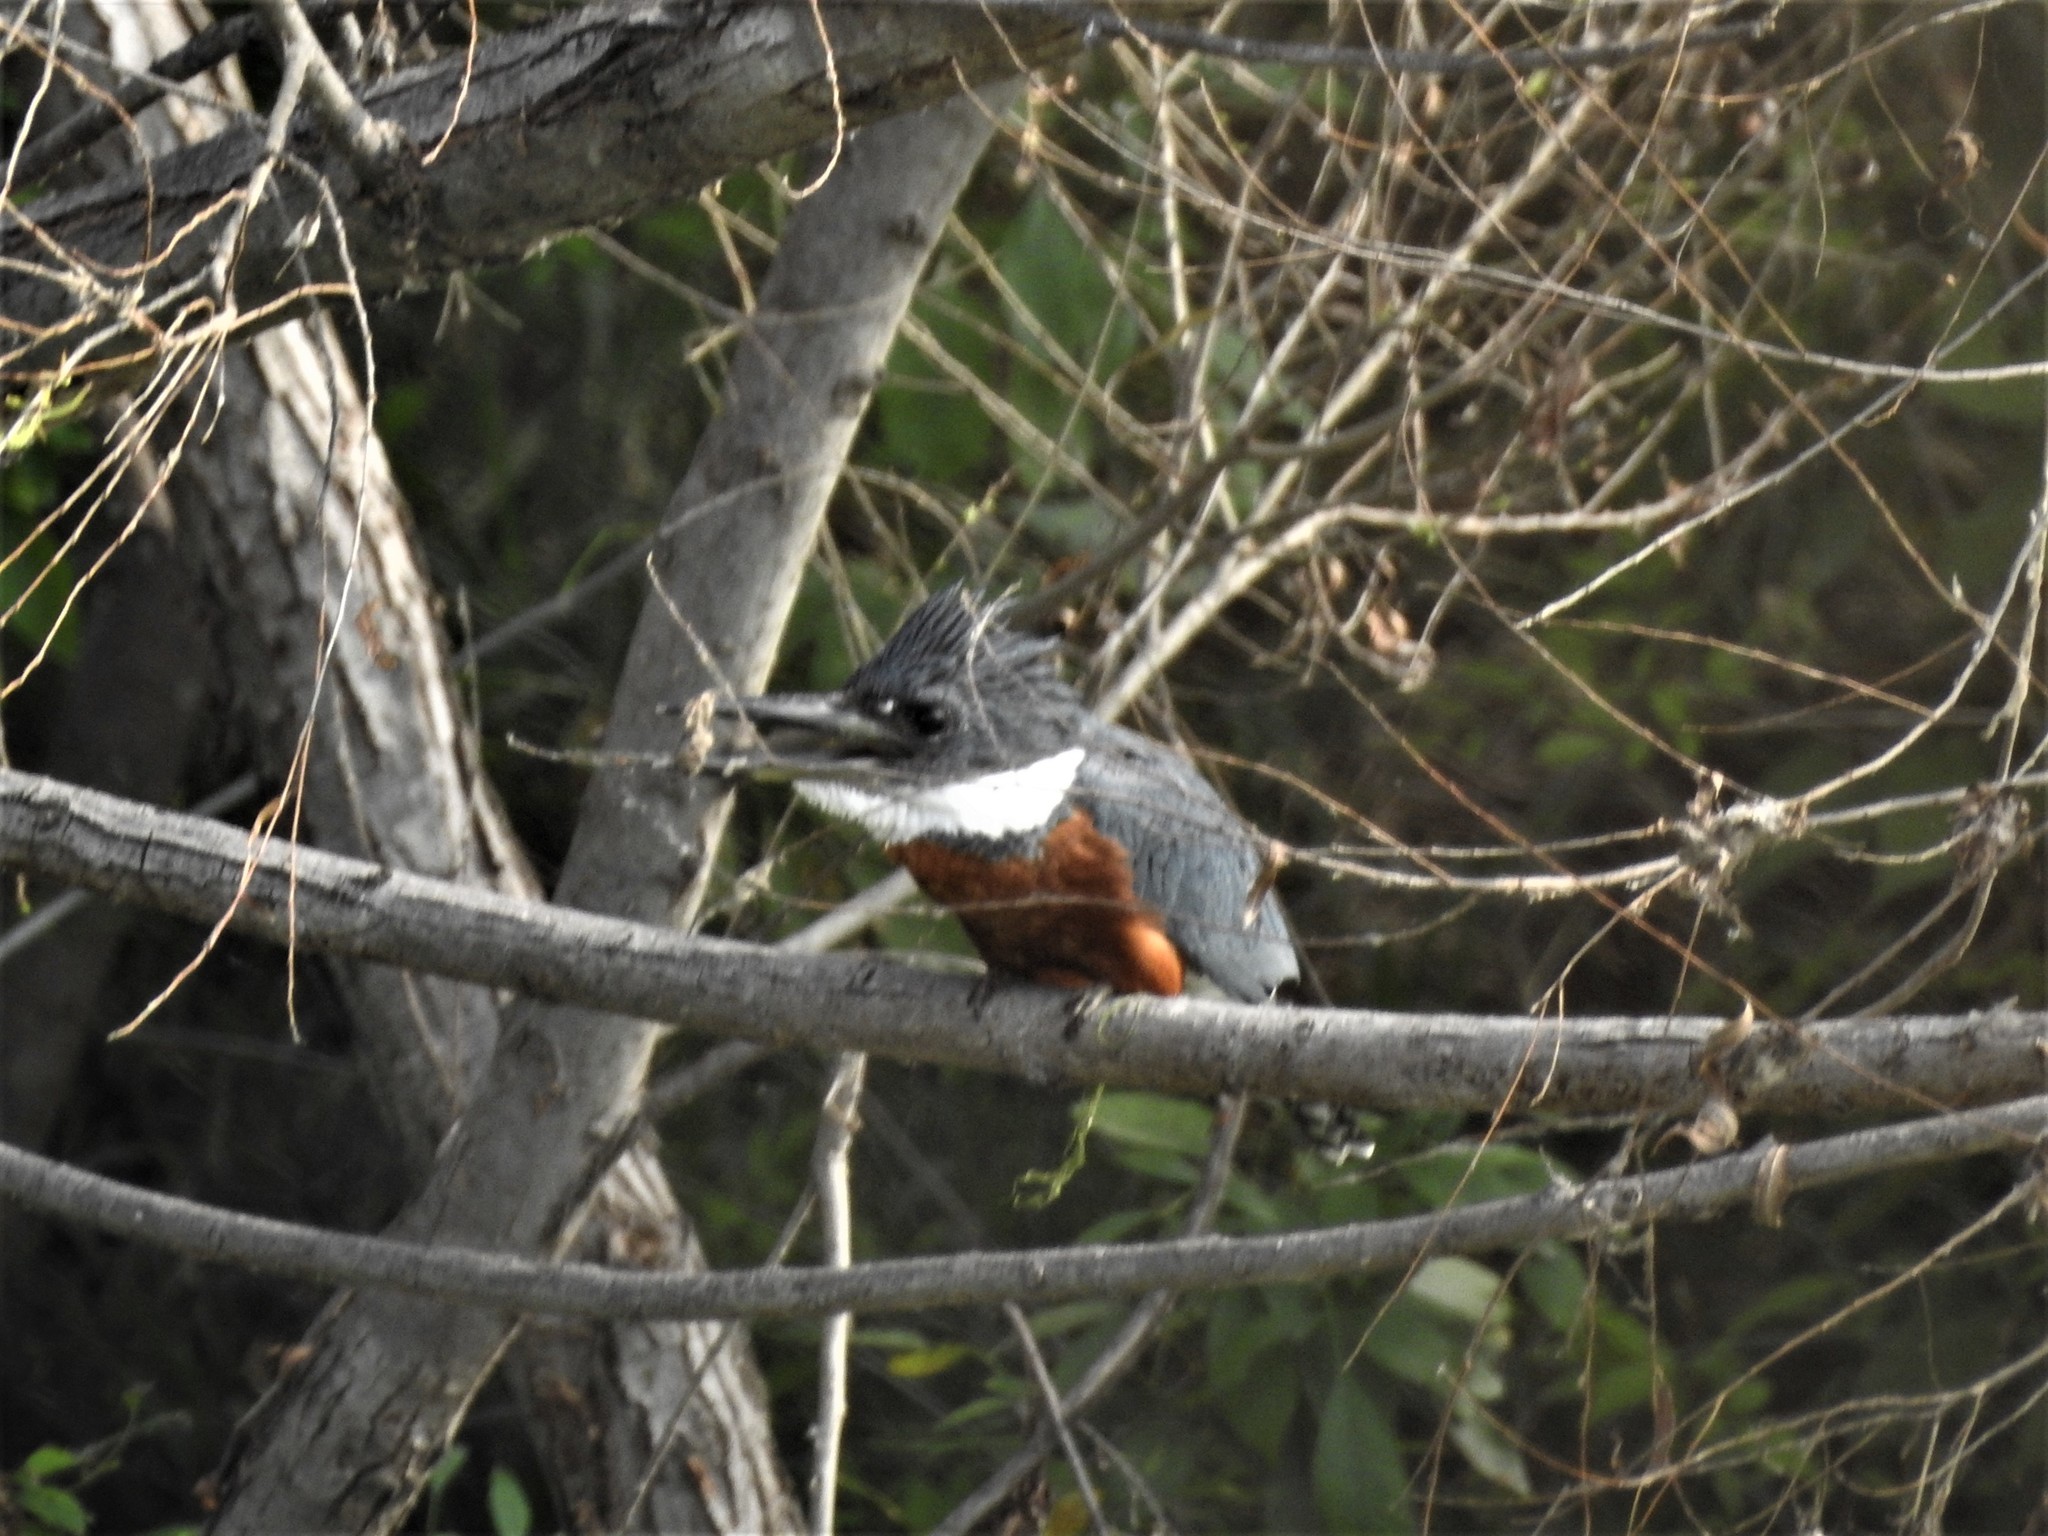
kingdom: Animalia
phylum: Chordata
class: Aves
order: Coraciiformes
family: Alcedinidae
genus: Megaceryle
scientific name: Megaceryle torquata
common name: Ringed kingfisher
